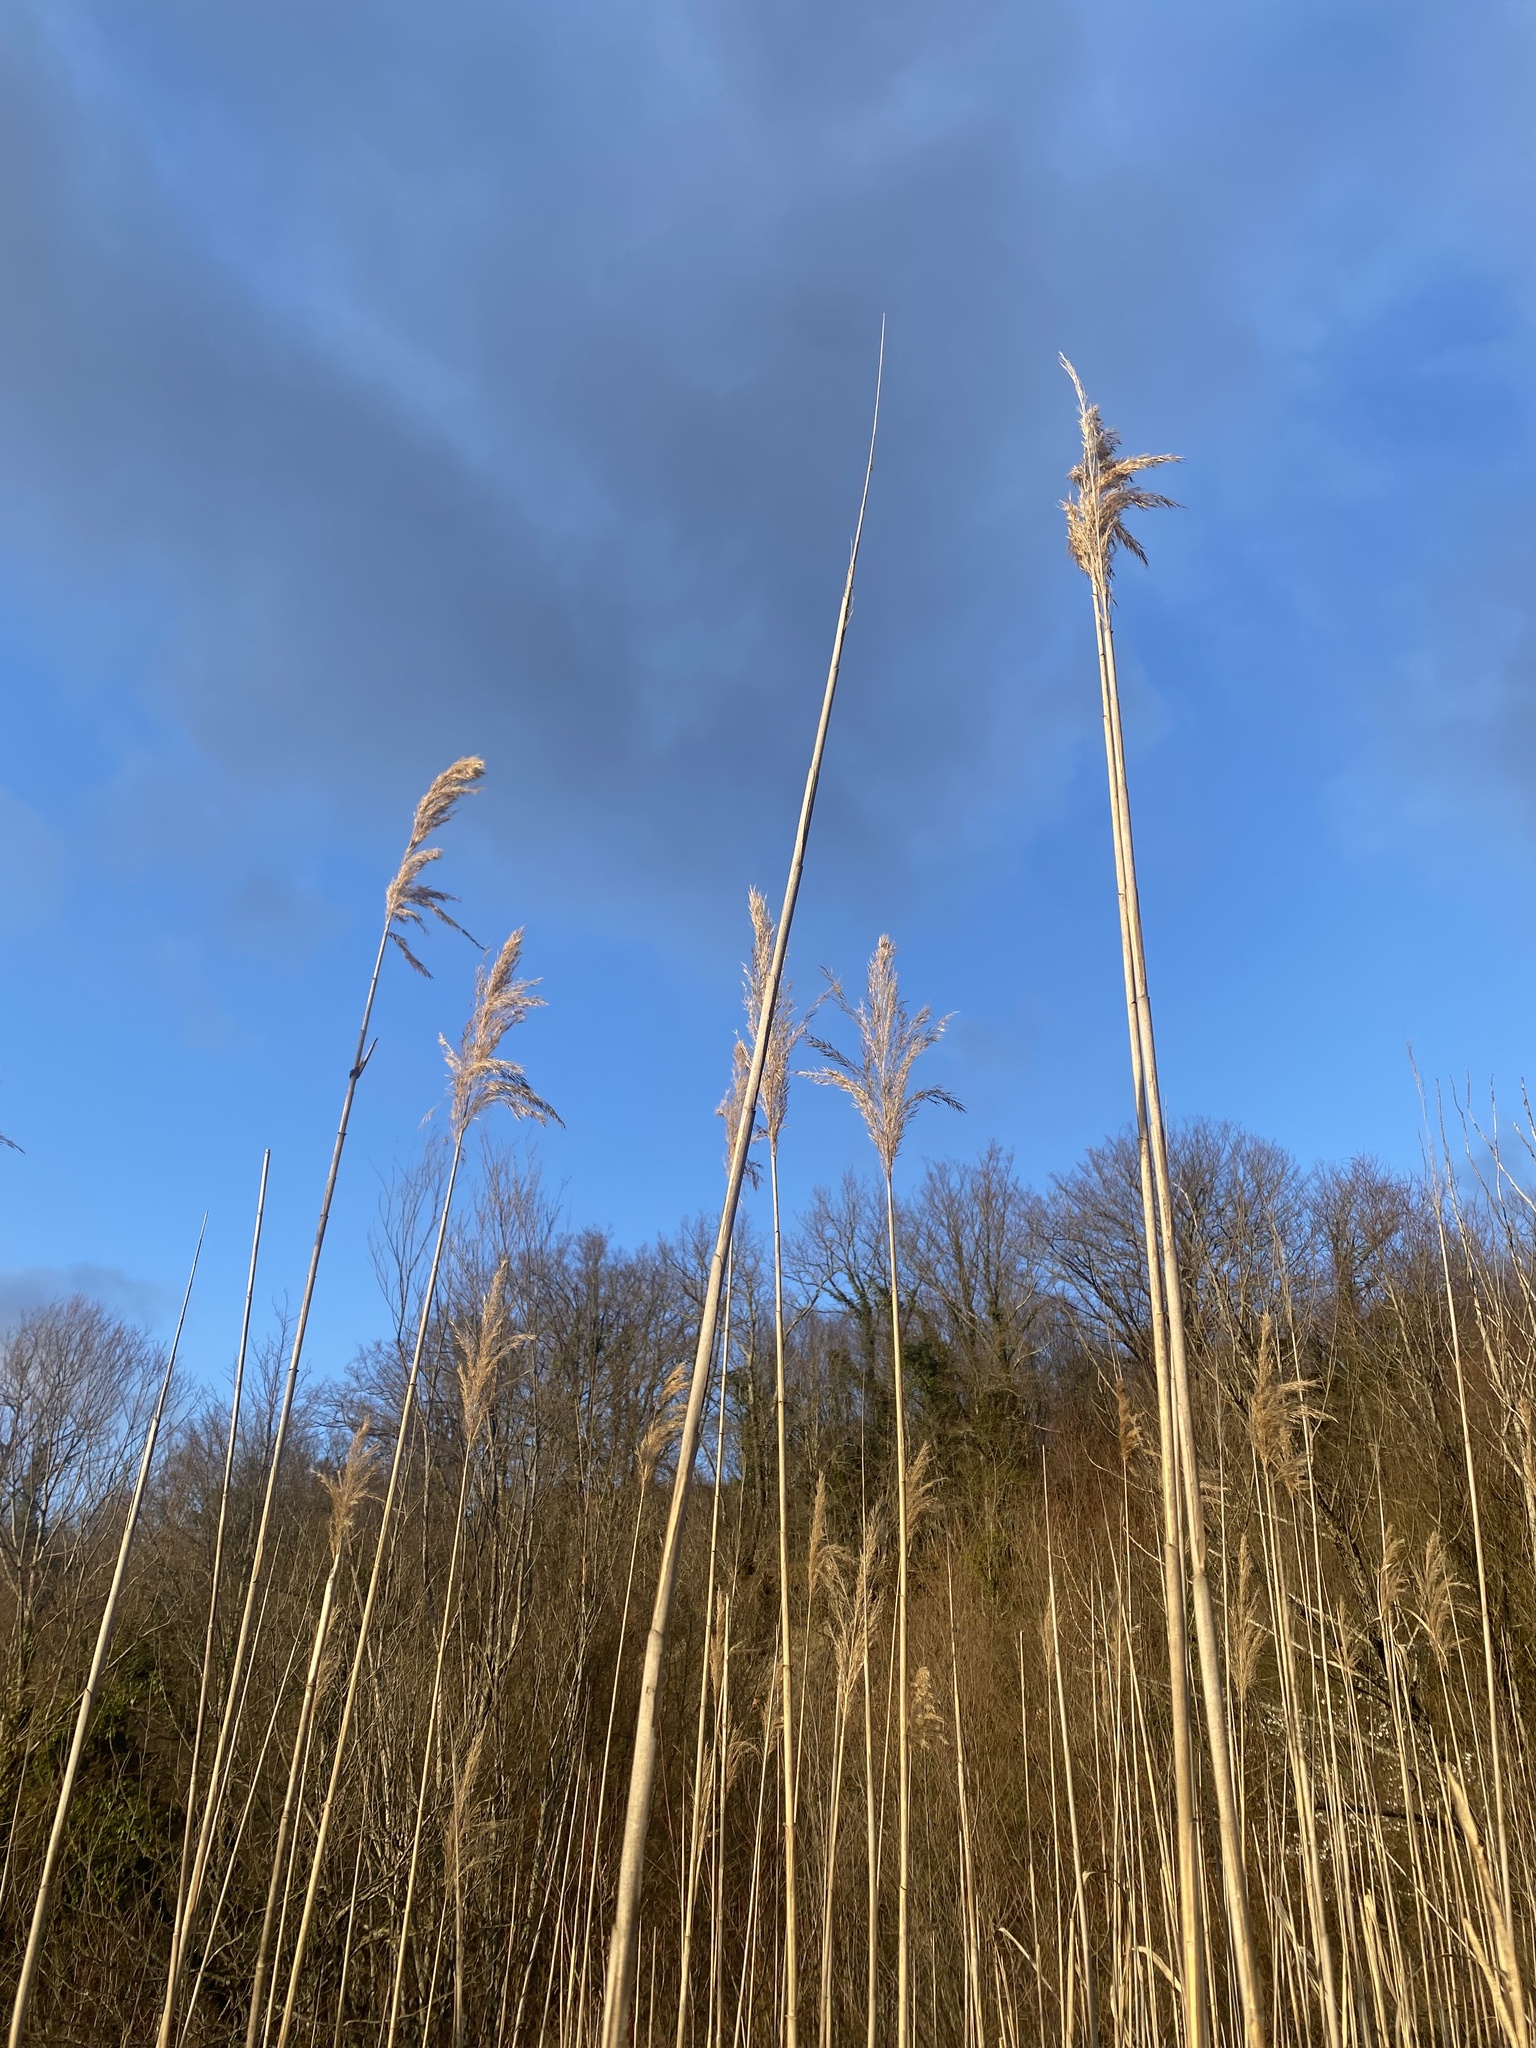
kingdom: Plantae
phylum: Tracheophyta
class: Liliopsida
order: Poales
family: Poaceae
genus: Phragmites
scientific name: Phragmites australis
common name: Common reed
